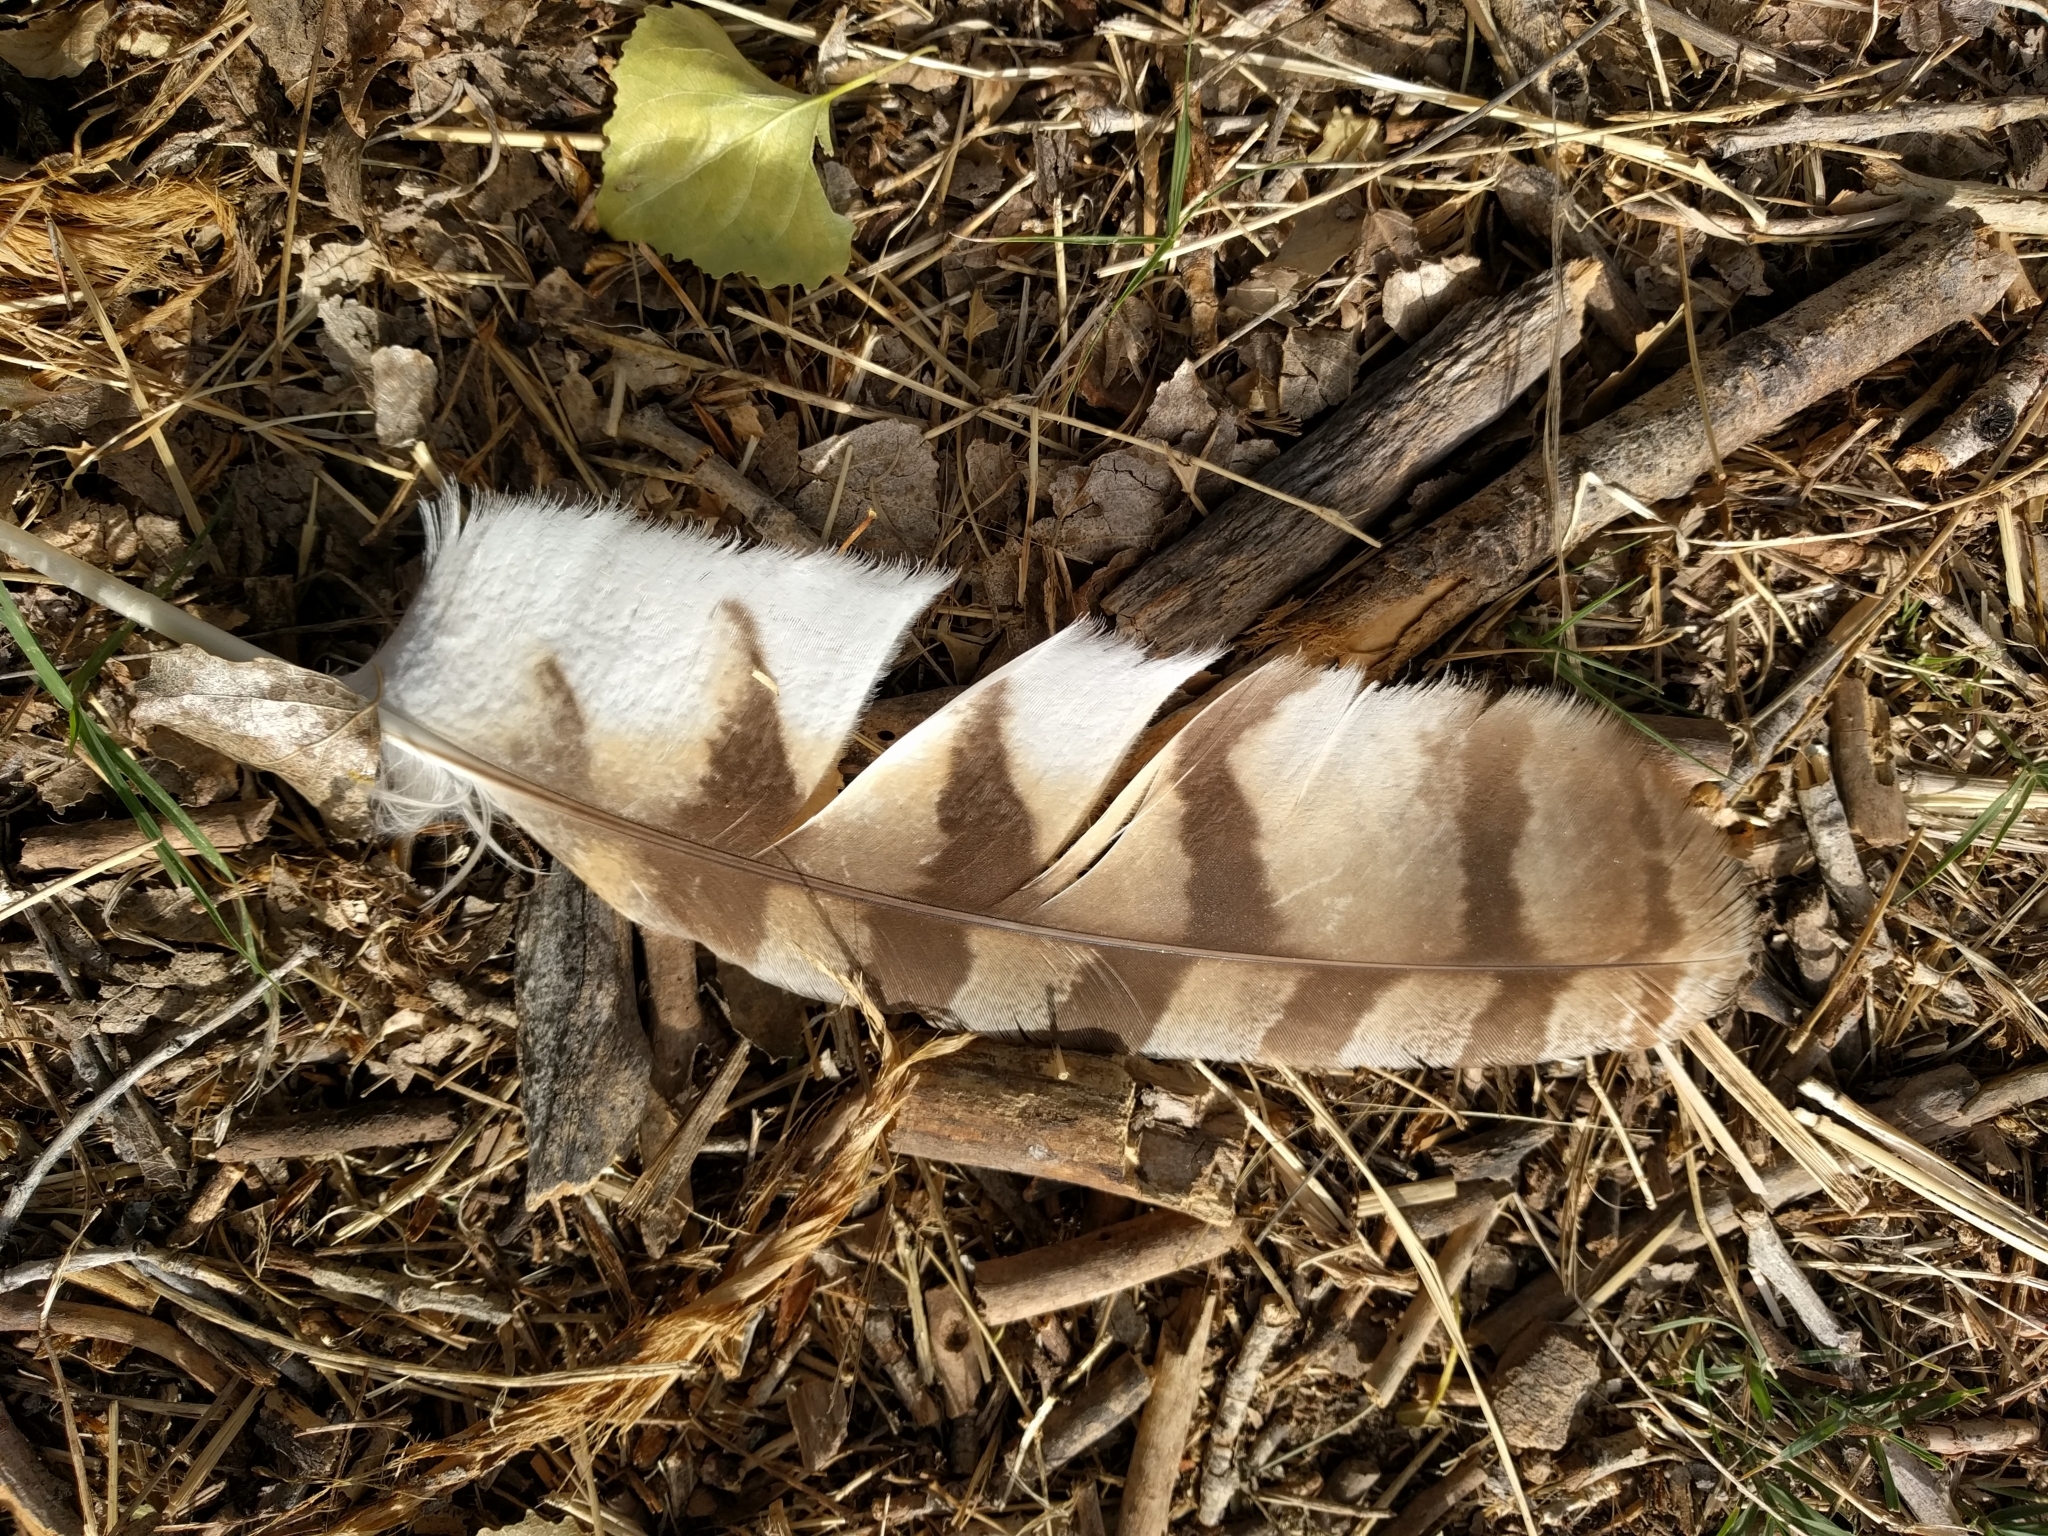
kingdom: Animalia
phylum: Chordata
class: Aves
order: Strigiformes
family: Strigidae
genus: Bubo
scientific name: Bubo virginianus
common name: Great horned owl
